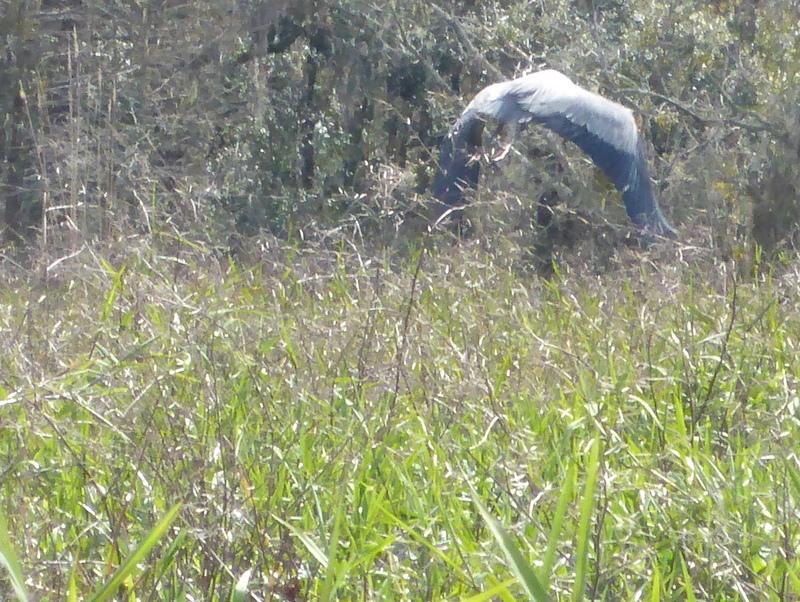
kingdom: Animalia
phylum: Chordata
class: Aves
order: Pelecaniformes
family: Ardeidae
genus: Ardea
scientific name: Ardea herodias
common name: Great blue heron
